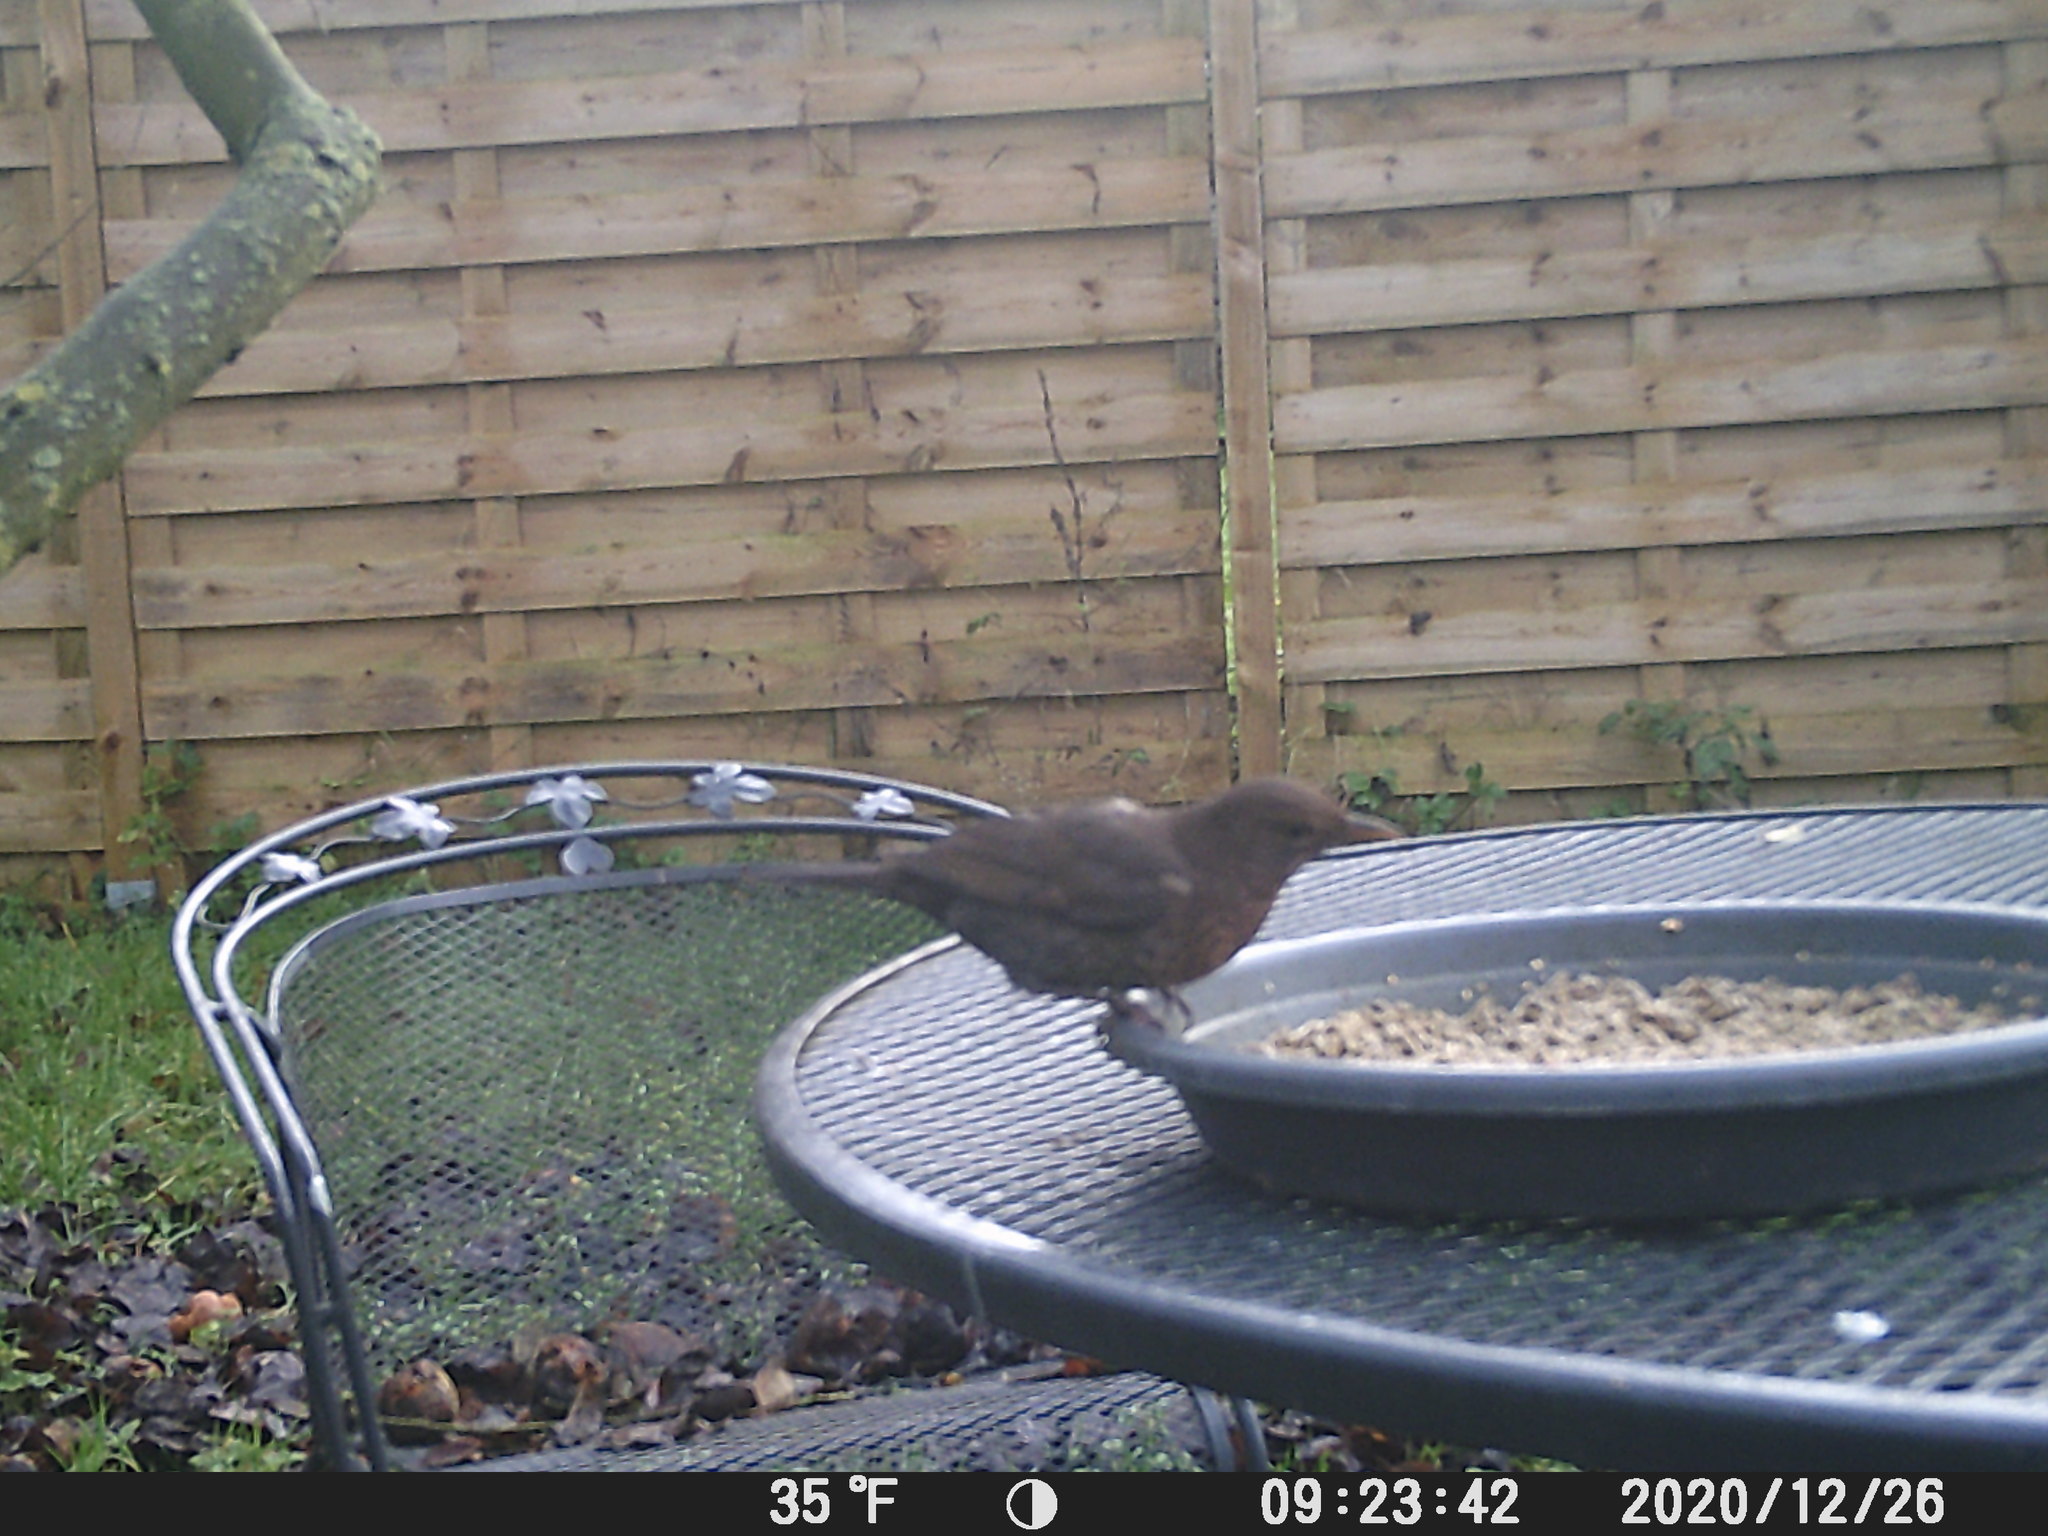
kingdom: Animalia
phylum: Chordata
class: Aves
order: Passeriformes
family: Turdidae
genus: Turdus
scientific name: Turdus merula
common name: Common blackbird
